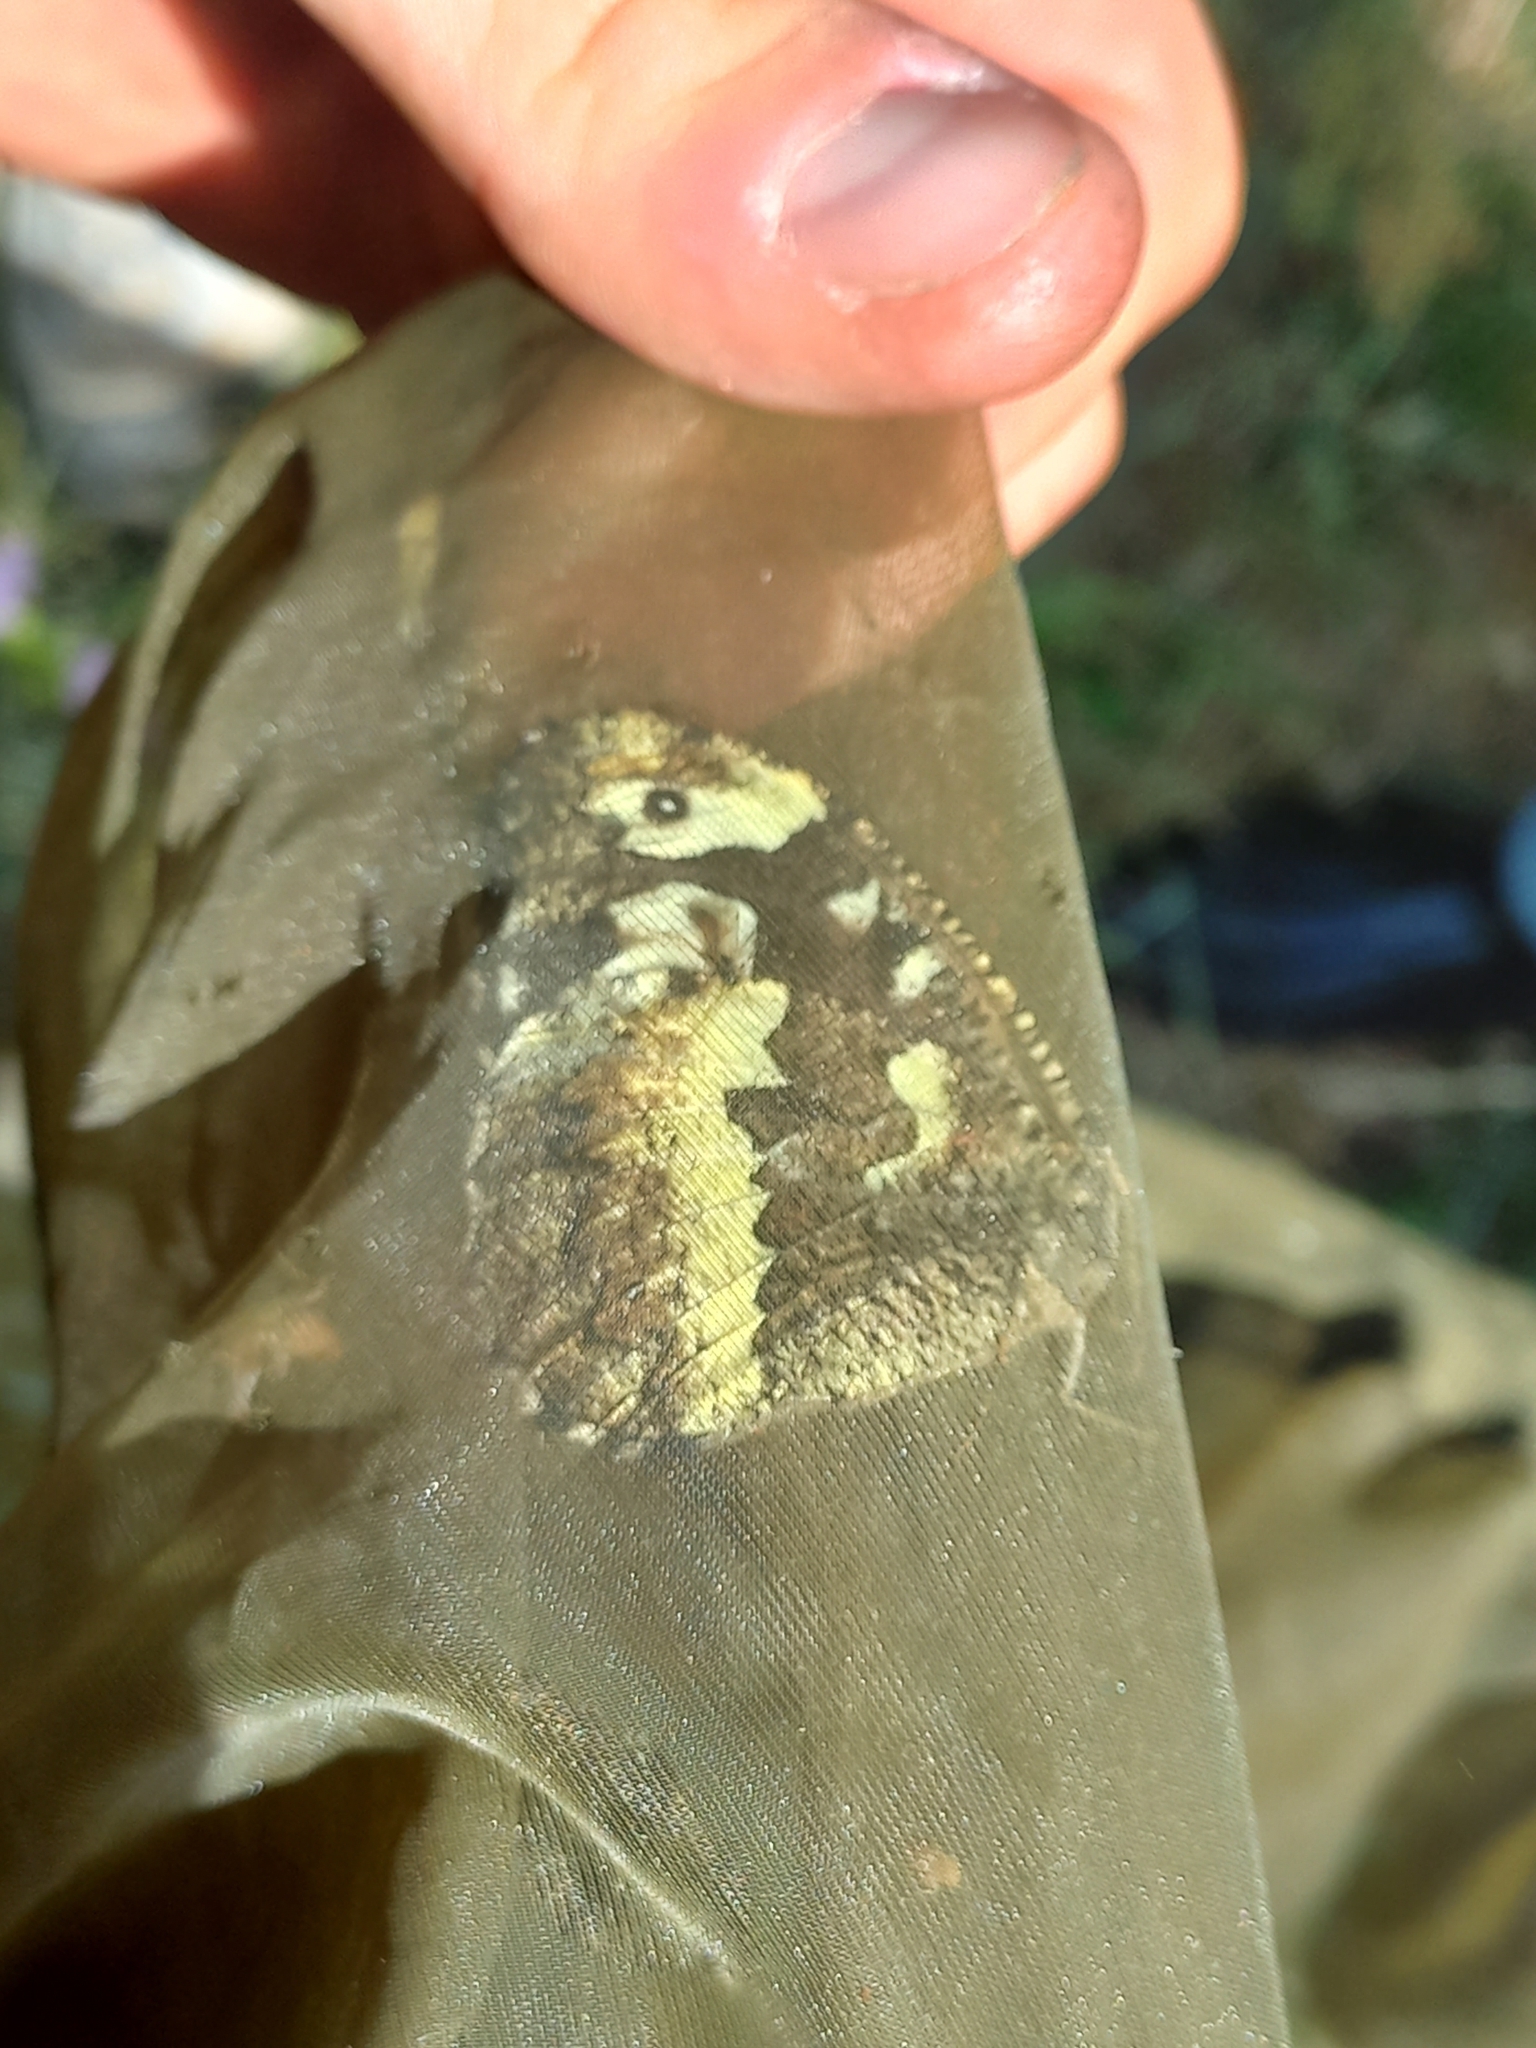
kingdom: Animalia
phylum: Arthropoda
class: Insecta
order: Lepidoptera
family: Lycaenidae
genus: Loweia
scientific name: Loweia tityrus
